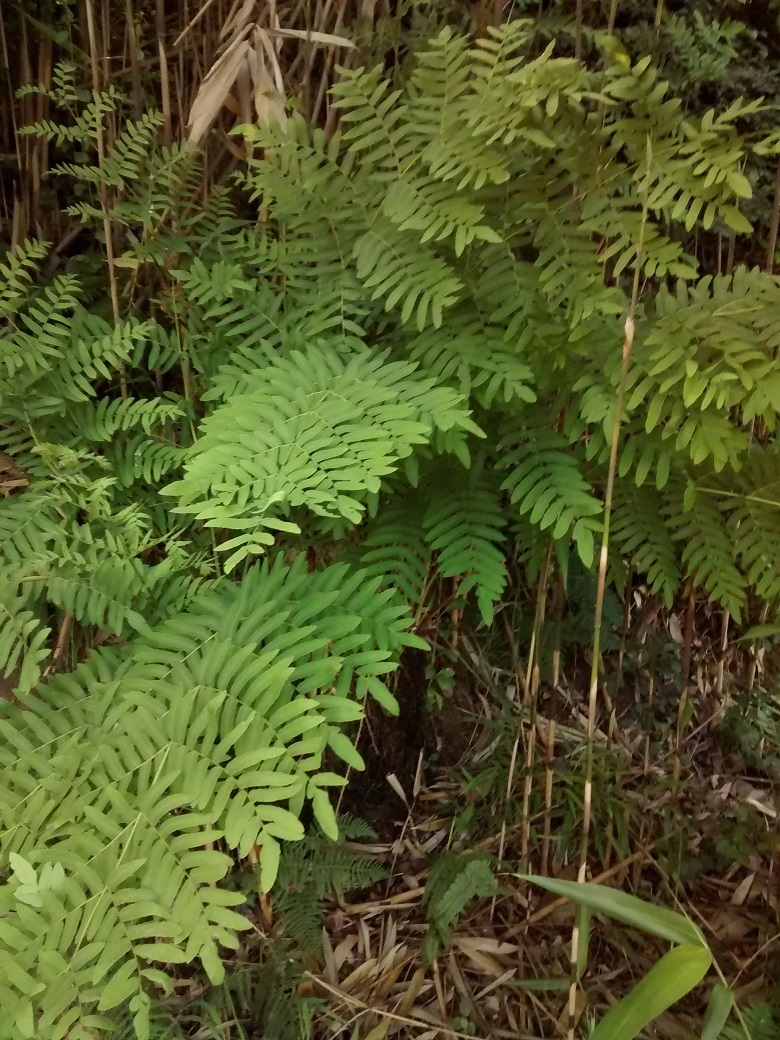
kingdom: Plantae
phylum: Tracheophyta
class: Polypodiopsida
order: Osmundales
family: Osmundaceae
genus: Osmunda
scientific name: Osmunda regalis
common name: Royal fern
